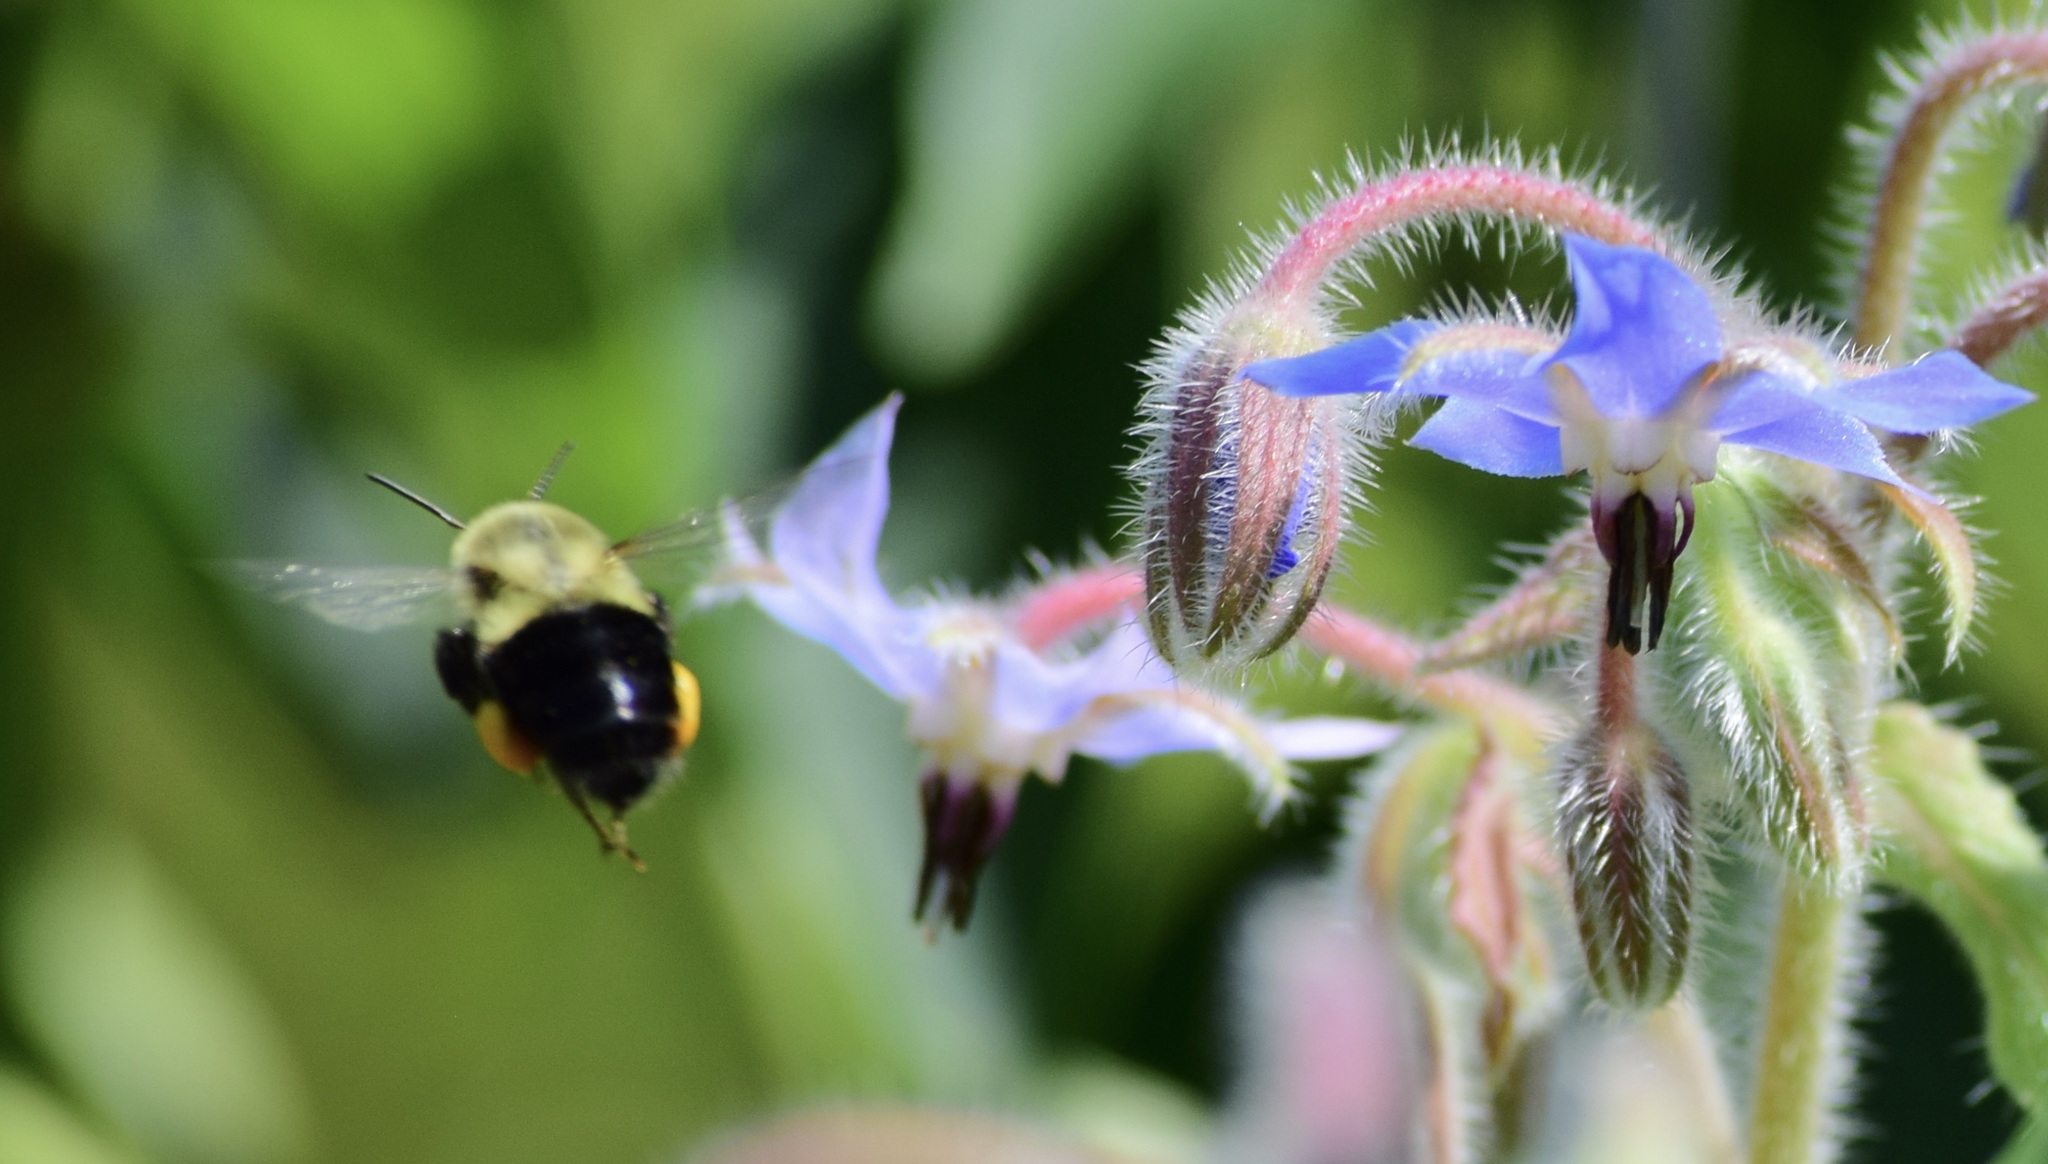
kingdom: Animalia
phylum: Arthropoda
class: Insecta
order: Hymenoptera
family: Apidae
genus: Bombus
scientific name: Bombus impatiens
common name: Common eastern bumble bee
